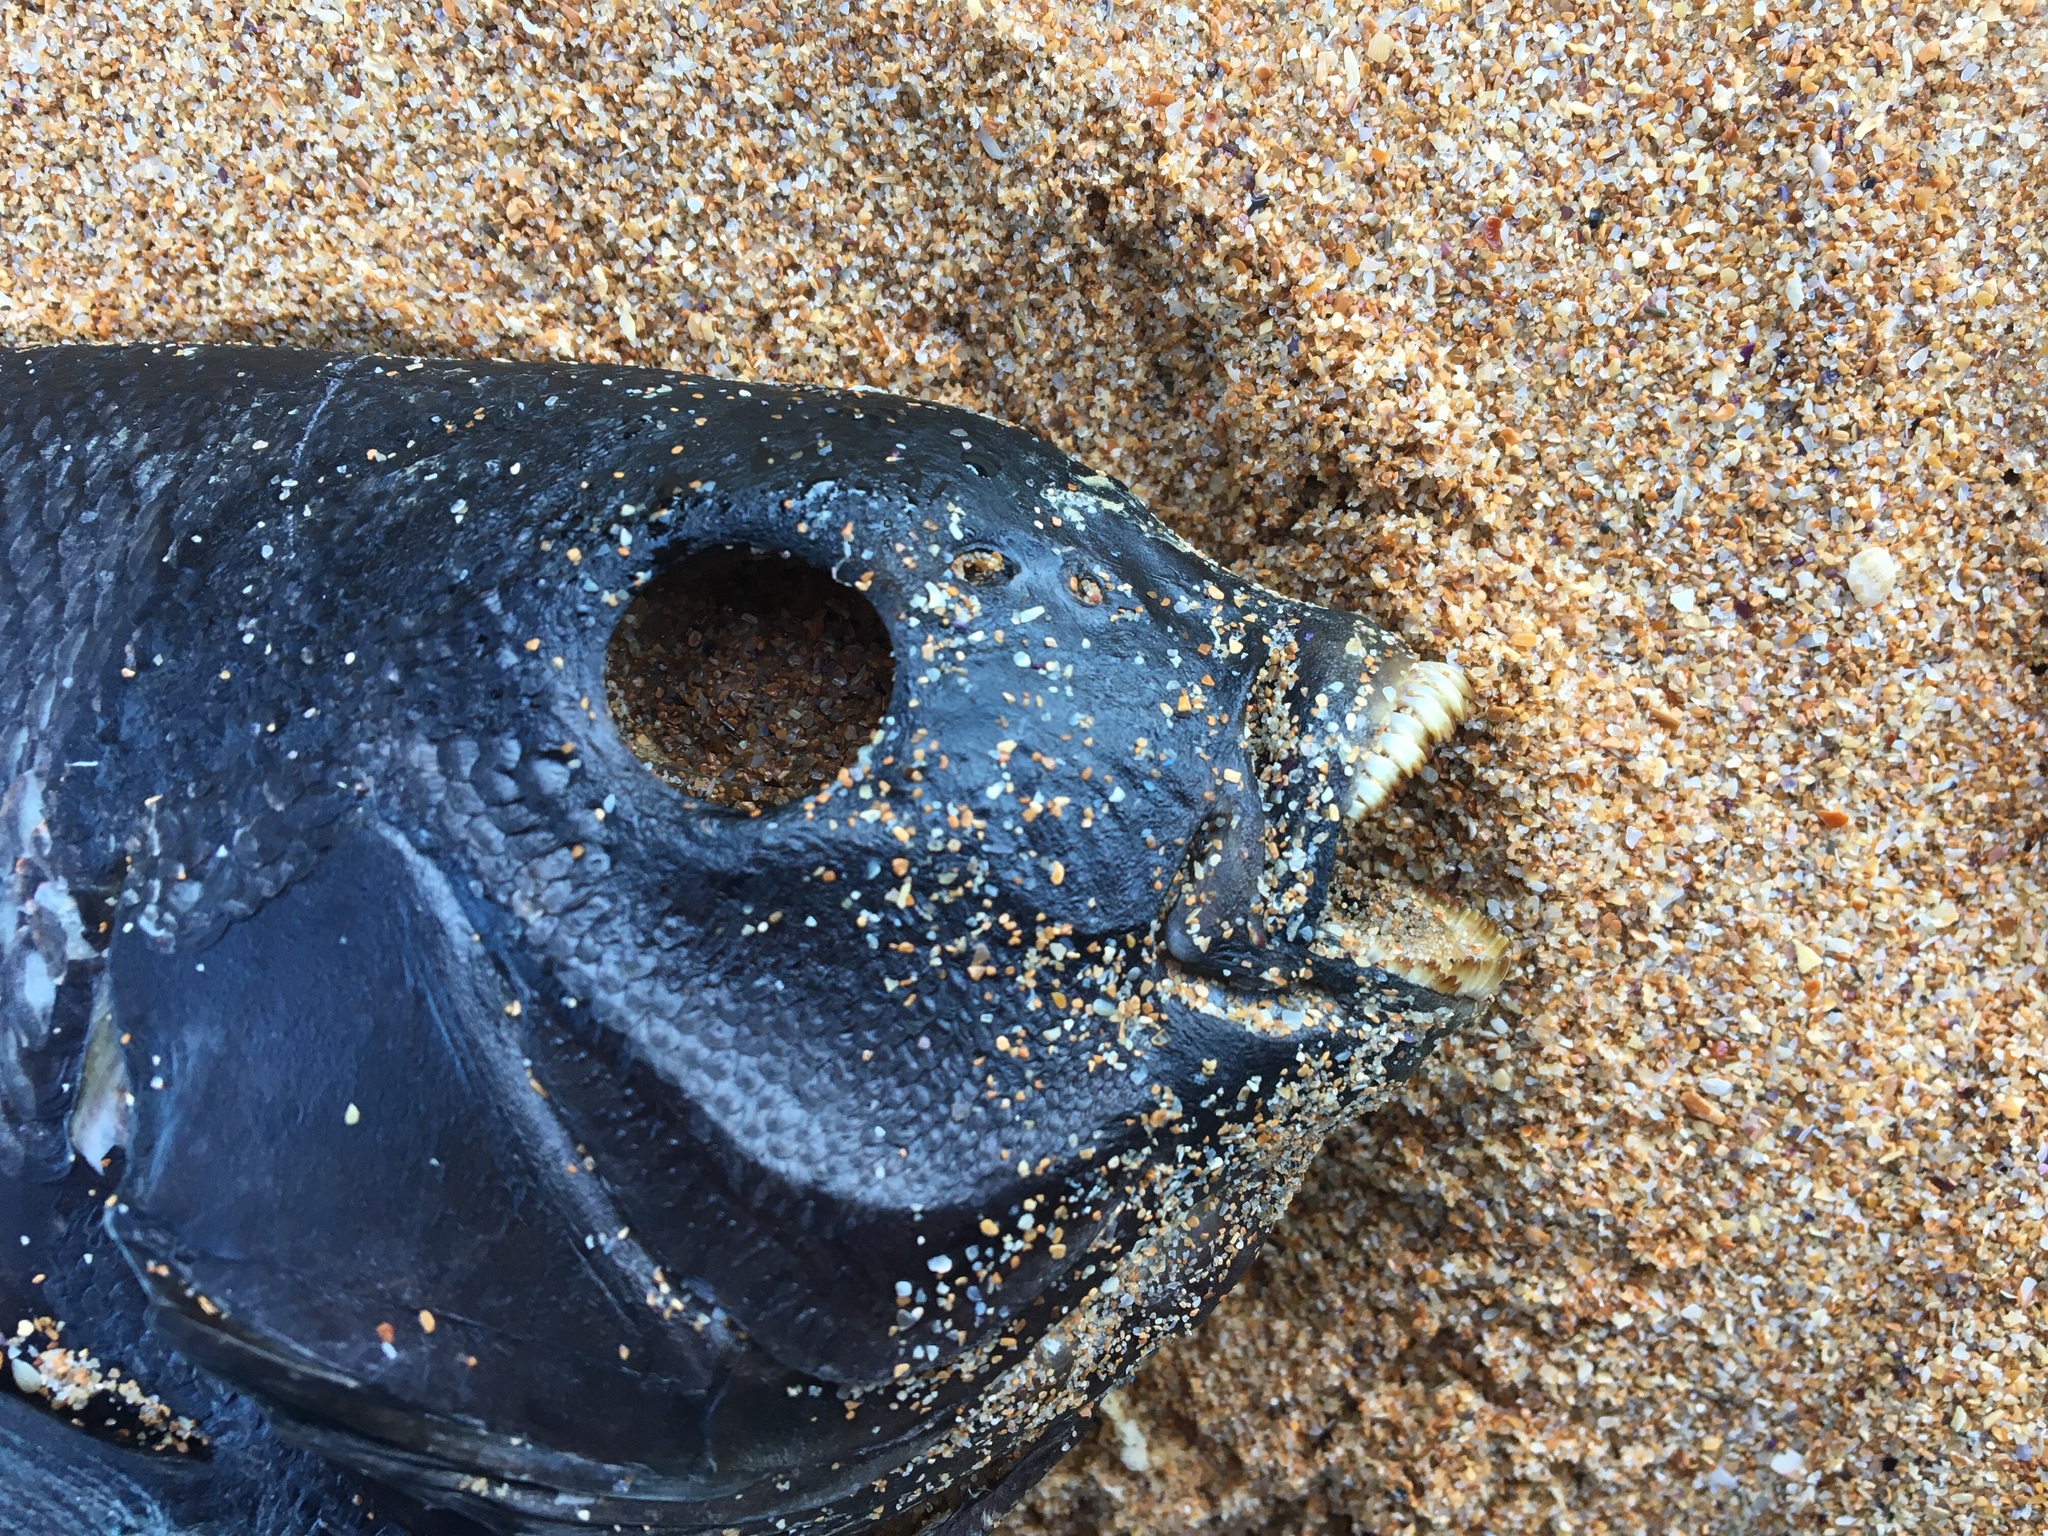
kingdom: Animalia
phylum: Chordata
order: Perciformes
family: Kyphosidae
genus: Girella
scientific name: Girella elevata
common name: Black bream
